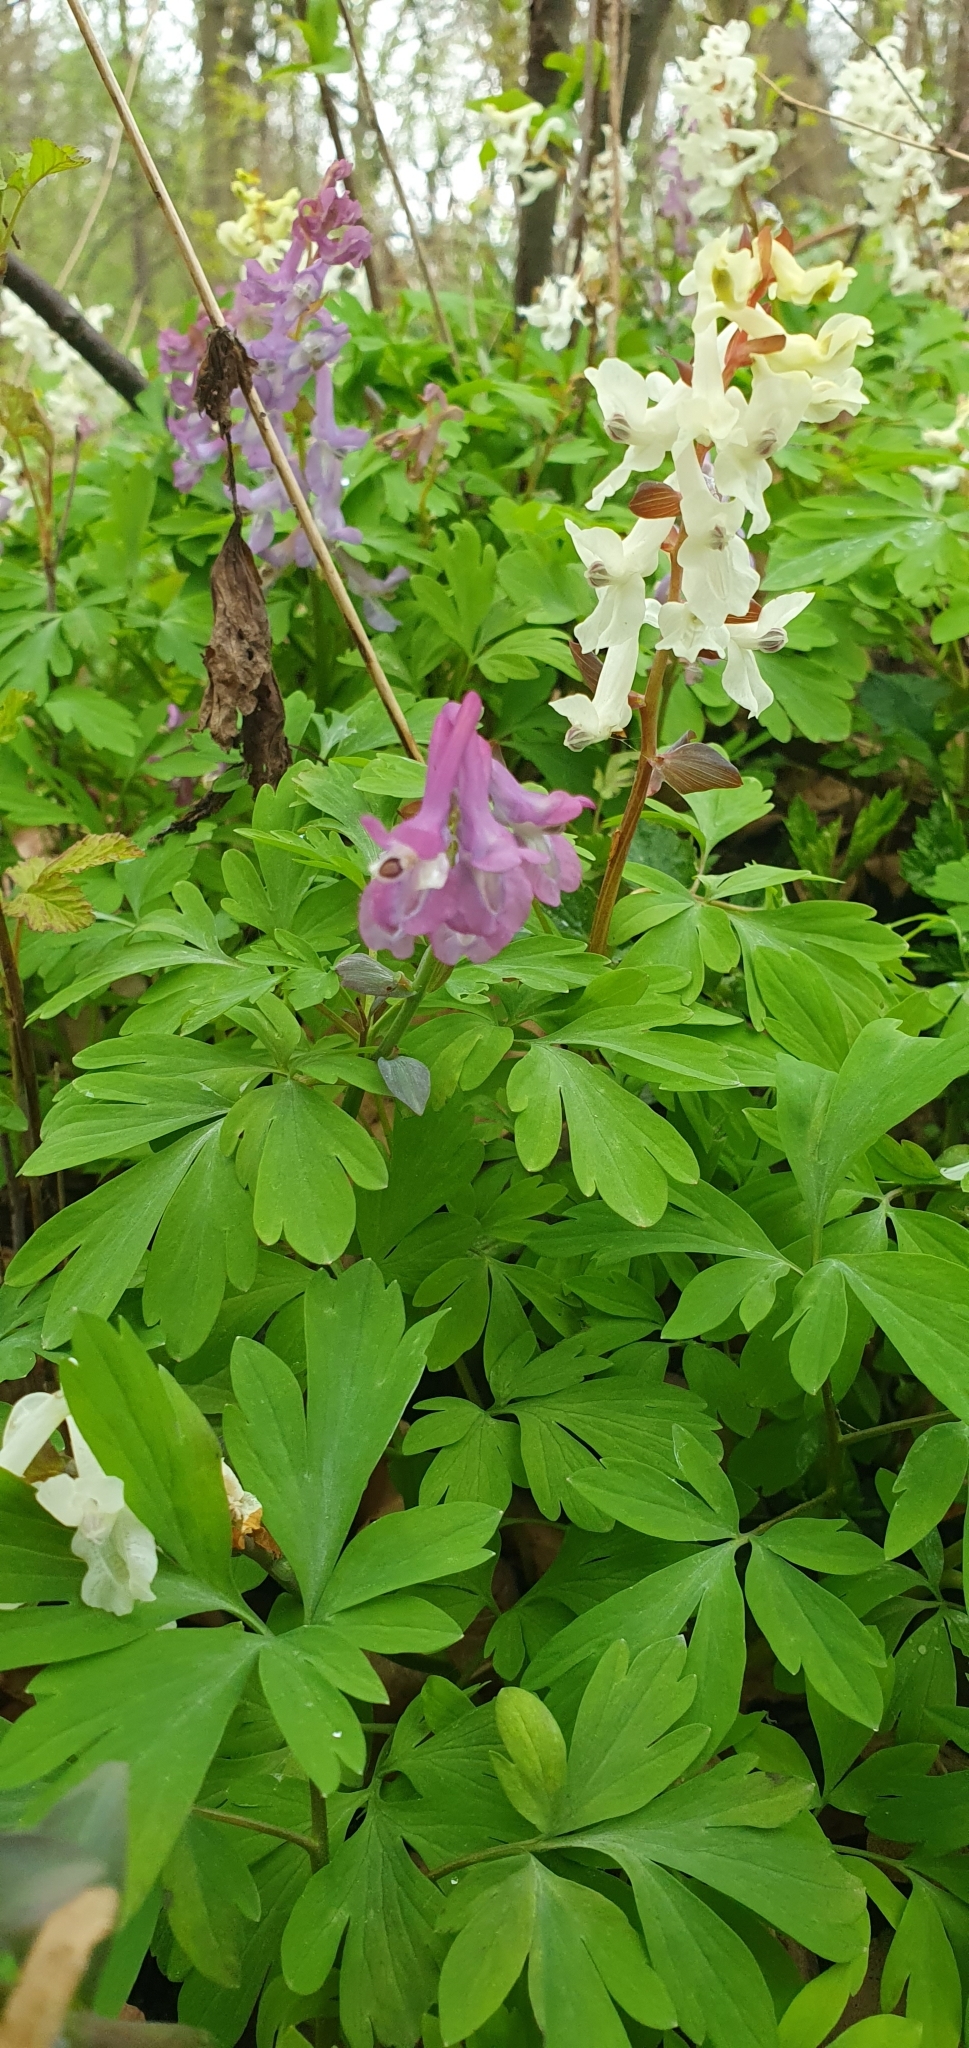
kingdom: Plantae
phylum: Tracheophyta
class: Magnoliopsida
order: Ranunculales
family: Papaveraceae
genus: Corydalis
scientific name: Corydalis cava
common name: Hollowroot
